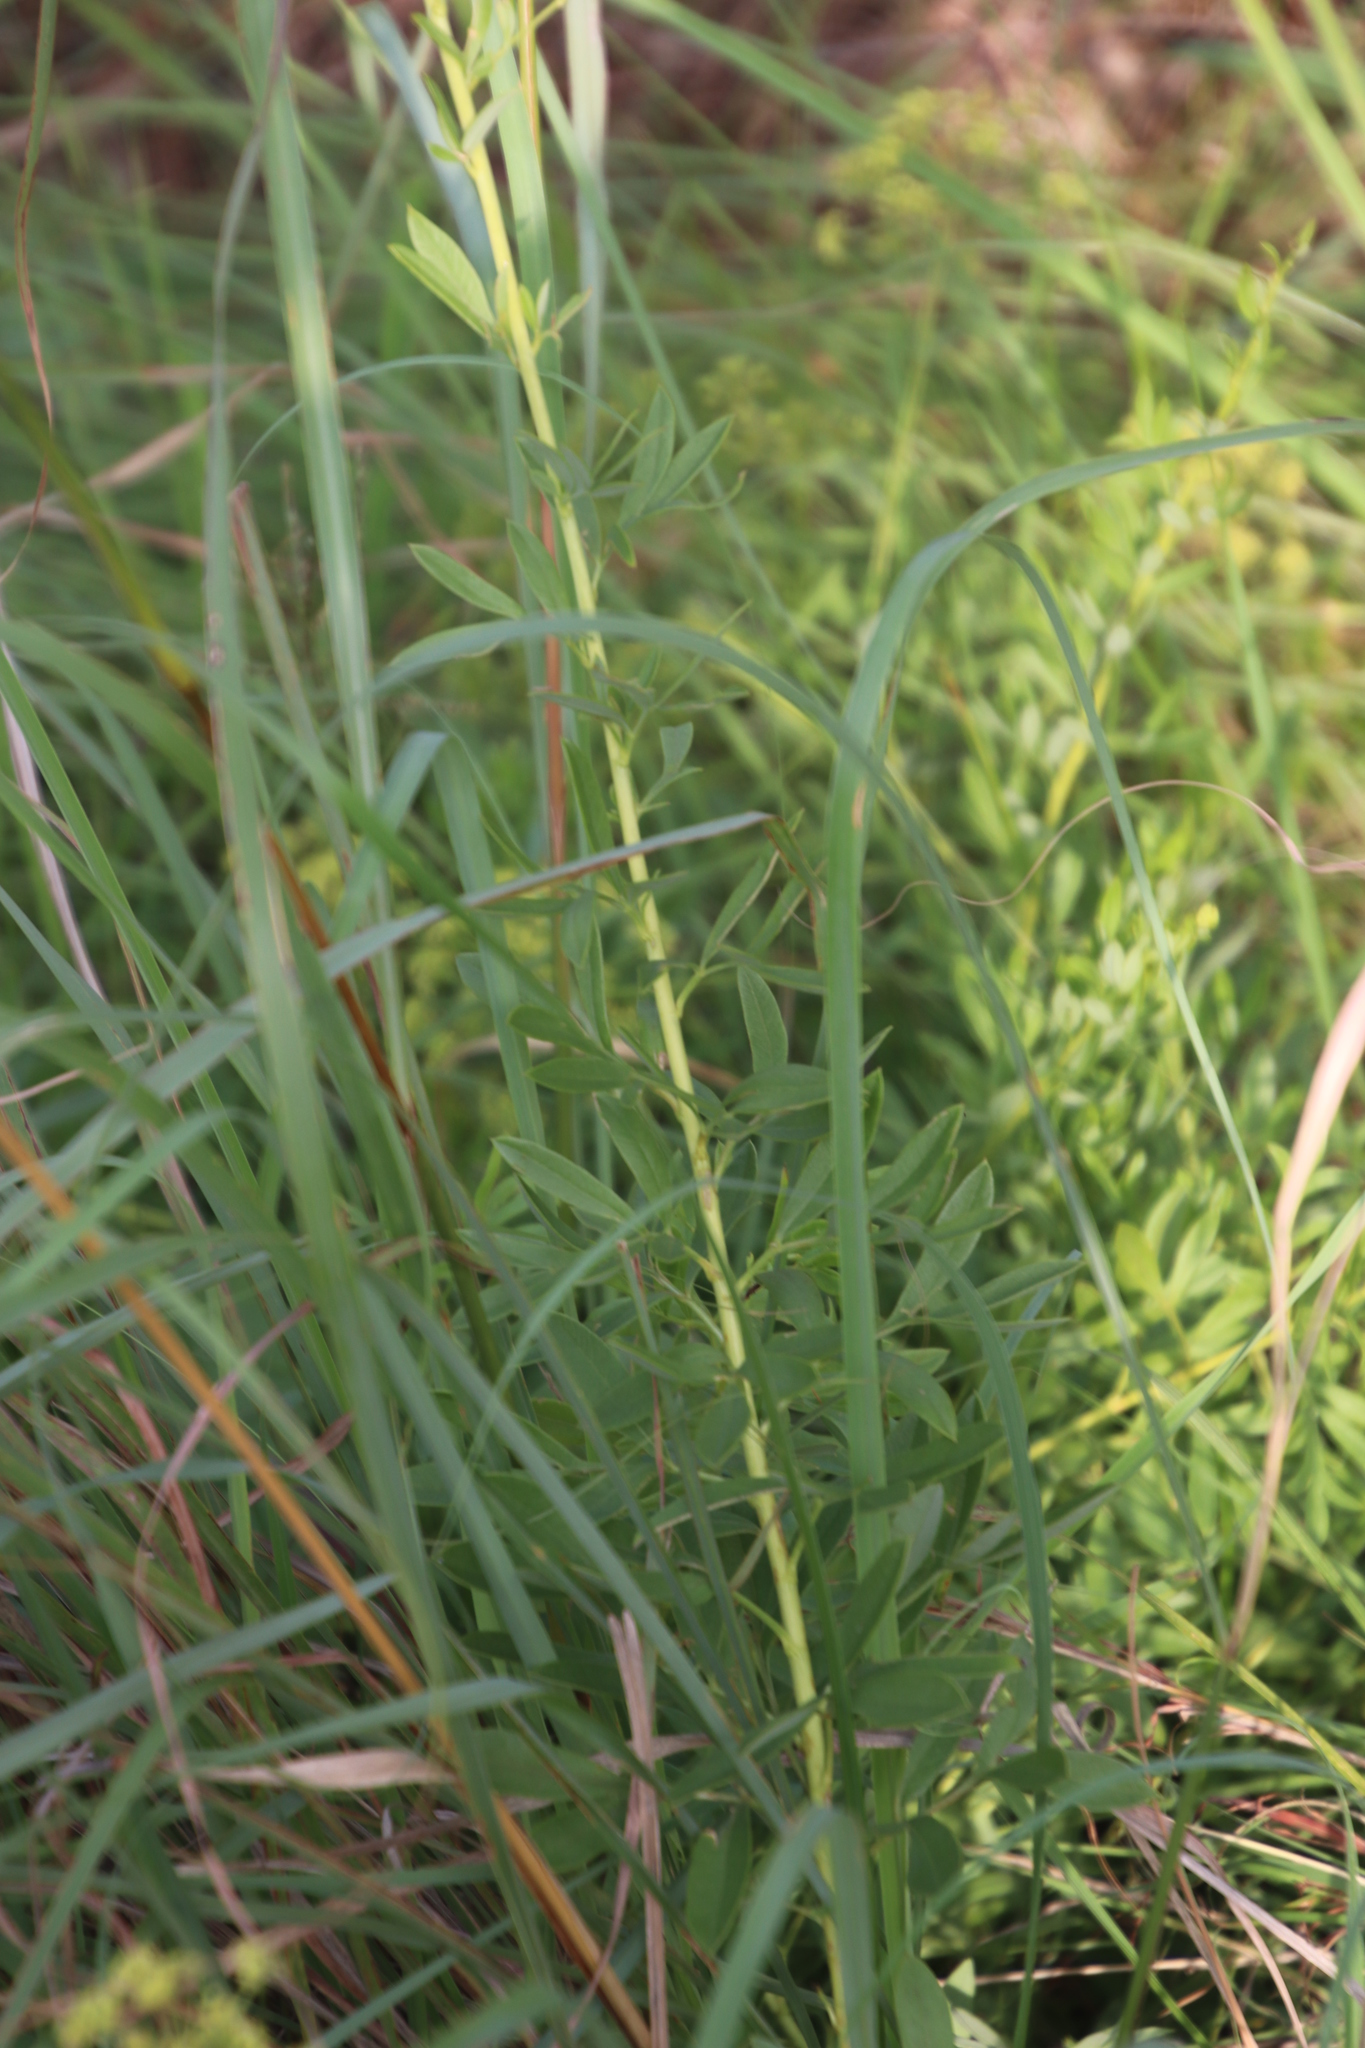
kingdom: Plantae
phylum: Tracheophyta
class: Magnoliopsida
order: Apiales
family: Apiaceae
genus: Heteromorpha
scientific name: Heteromorpha involucrata
